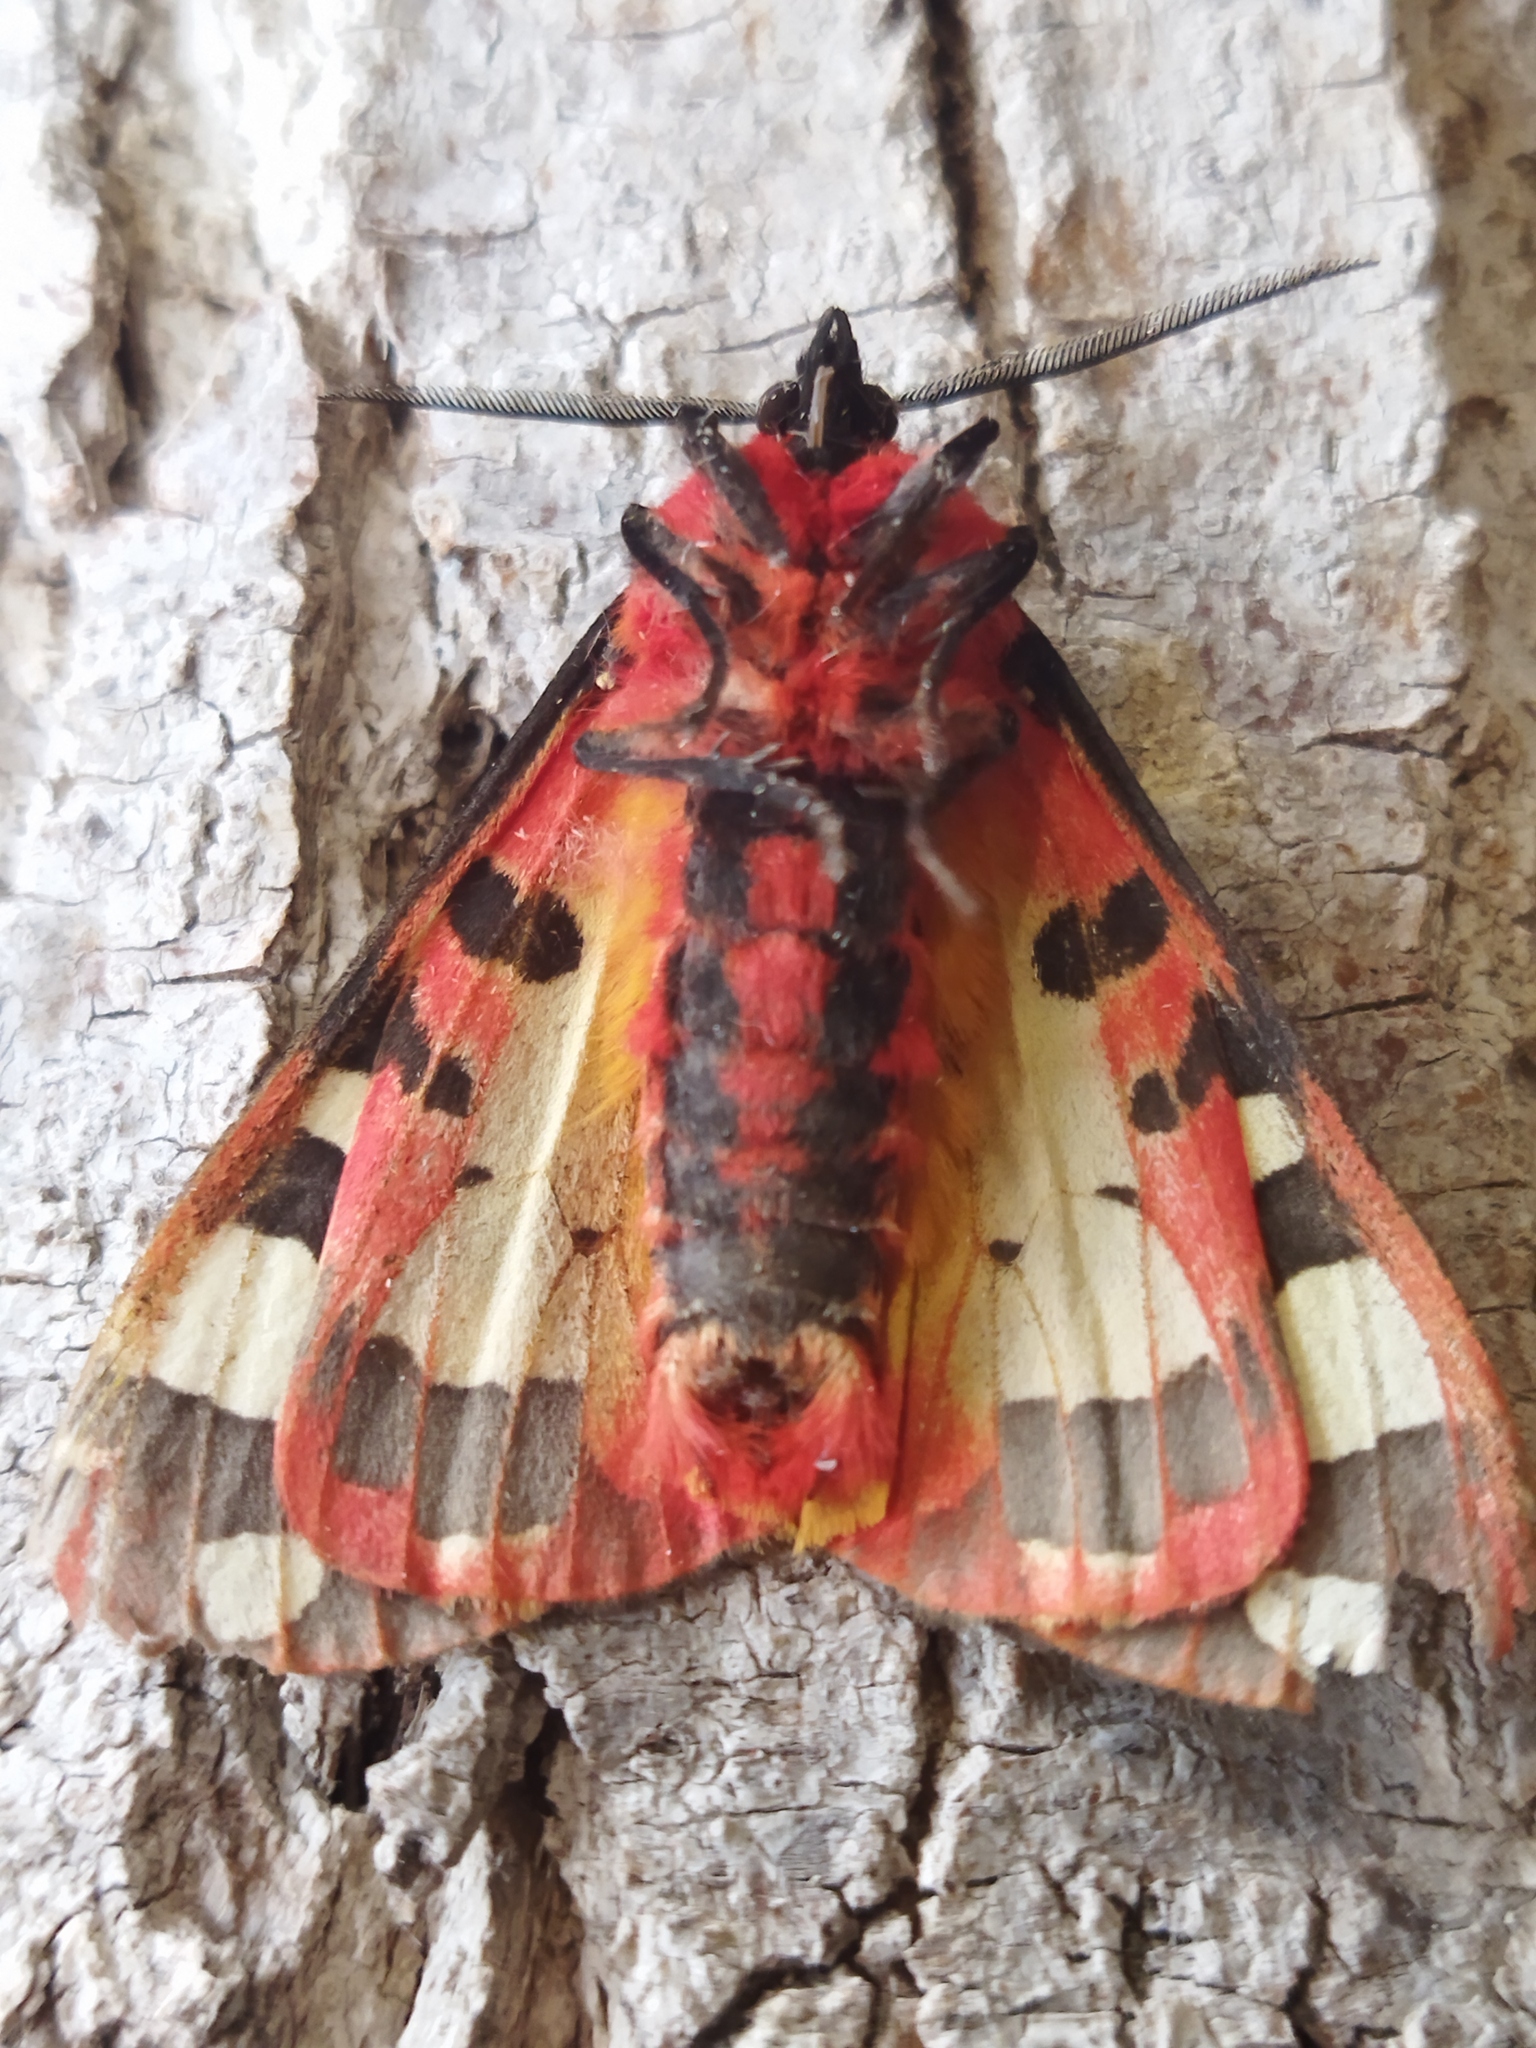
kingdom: Animalia
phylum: Arthropoda
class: Insecta
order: Lepidoptera
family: Erebidae
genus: Epicallia
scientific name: Epicallia villica
